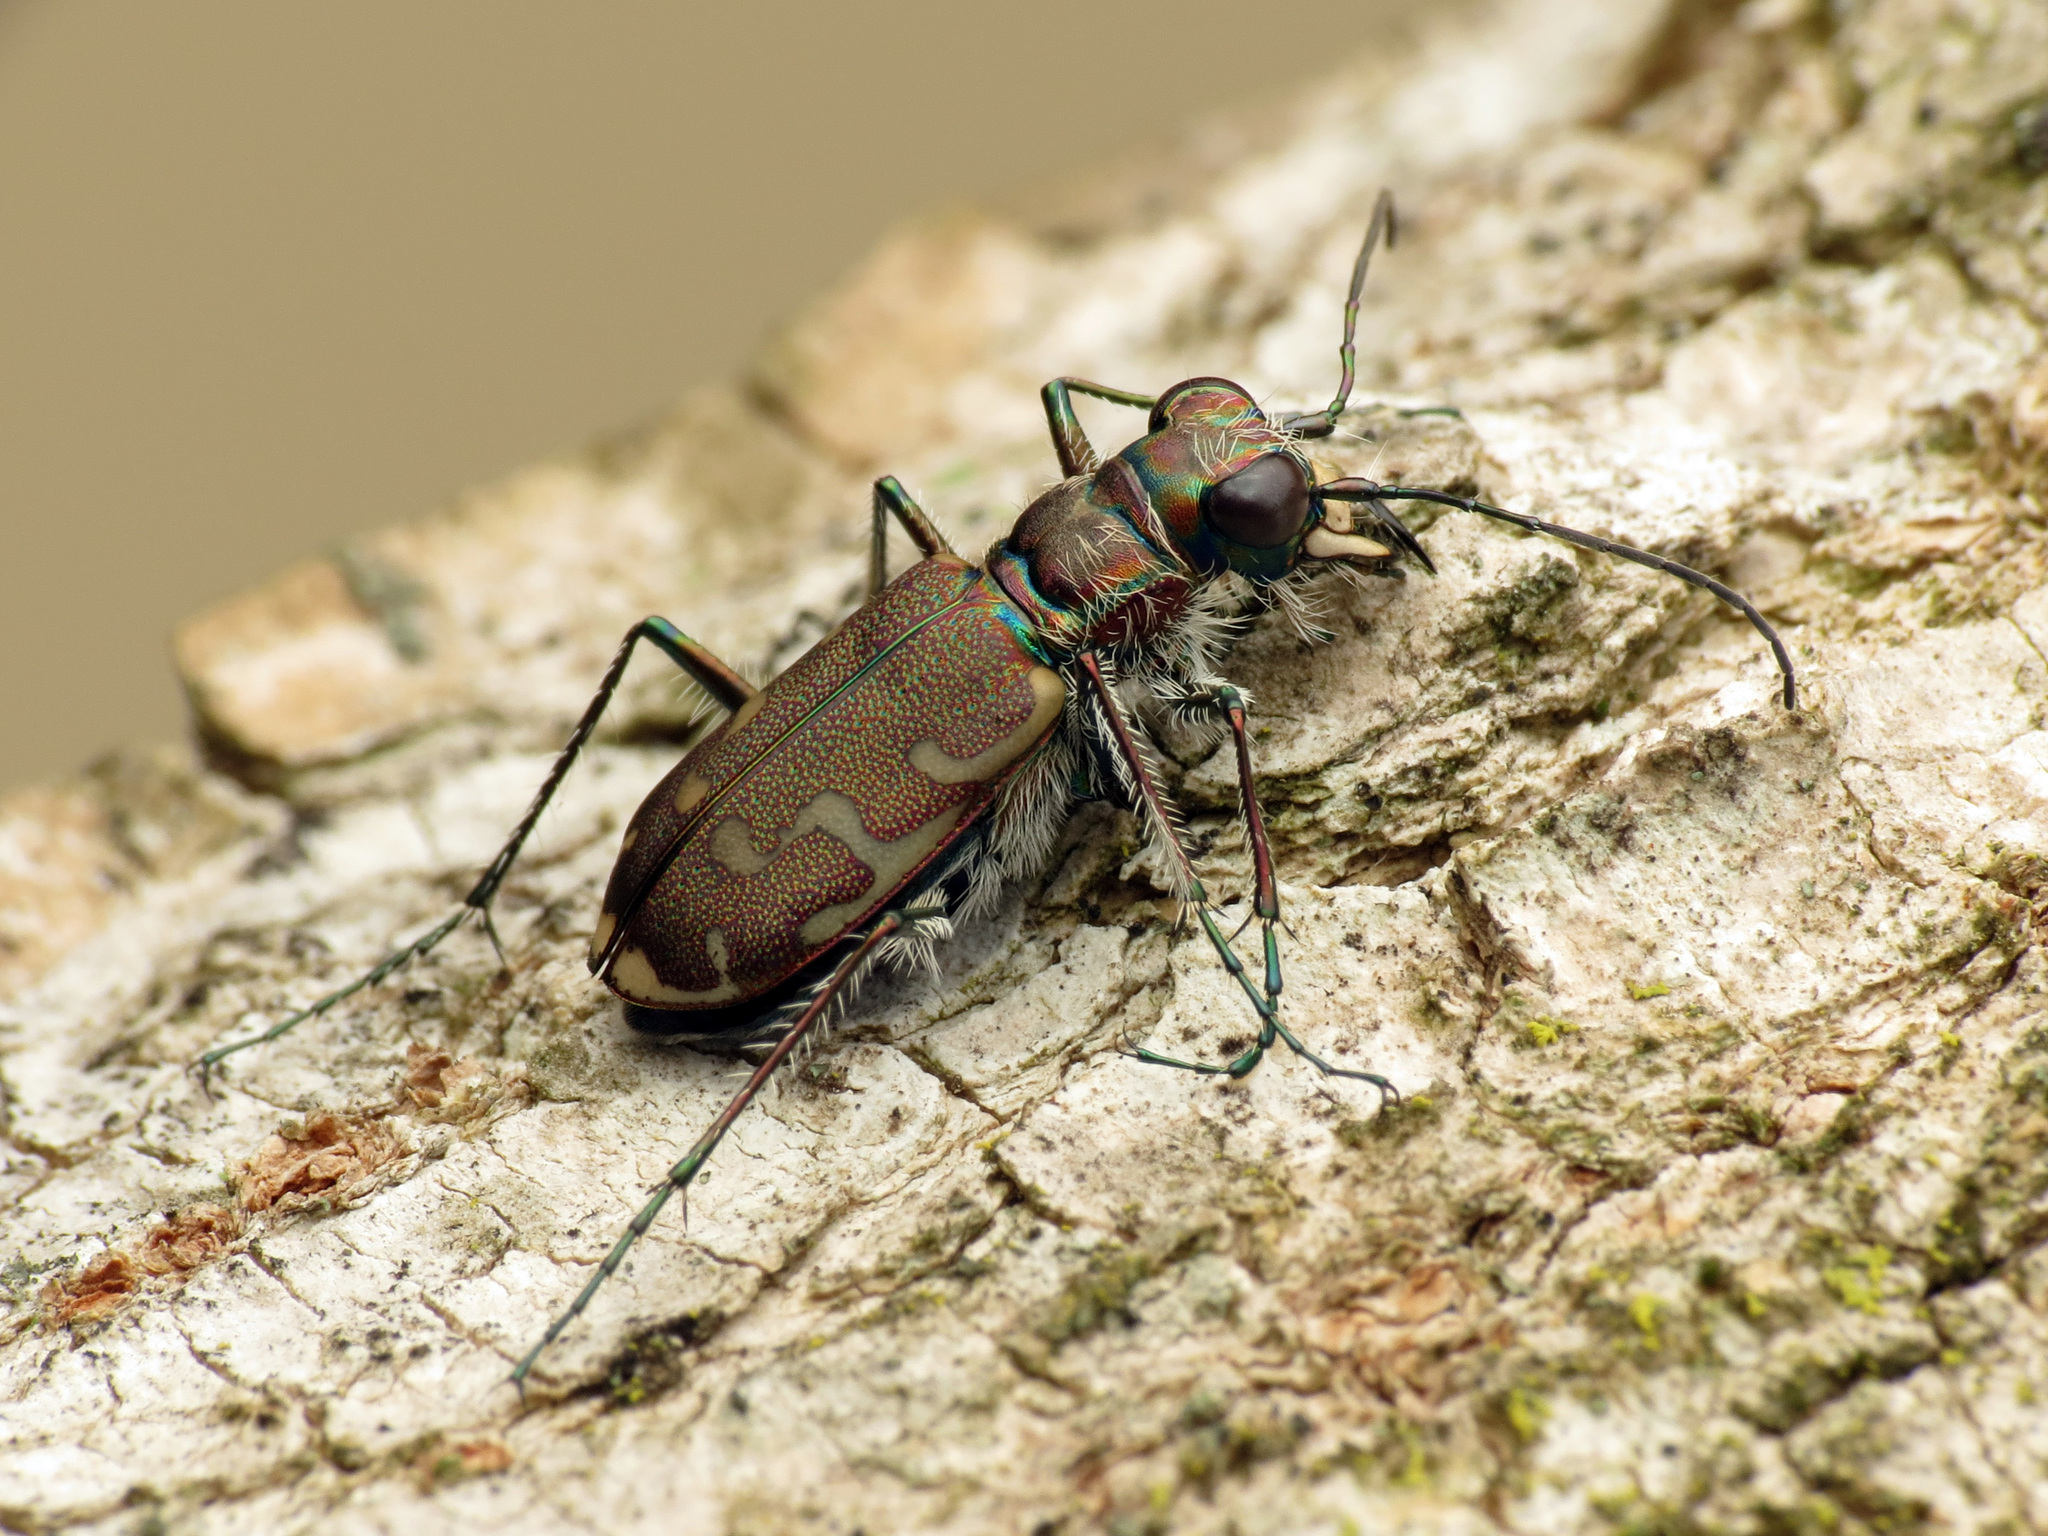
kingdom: Animalia
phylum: Arthropoda
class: Insecta
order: Coleoptera
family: Carabidae
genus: Cicindela
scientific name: Cicindela repanda
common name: Bronzed tiger beetle
